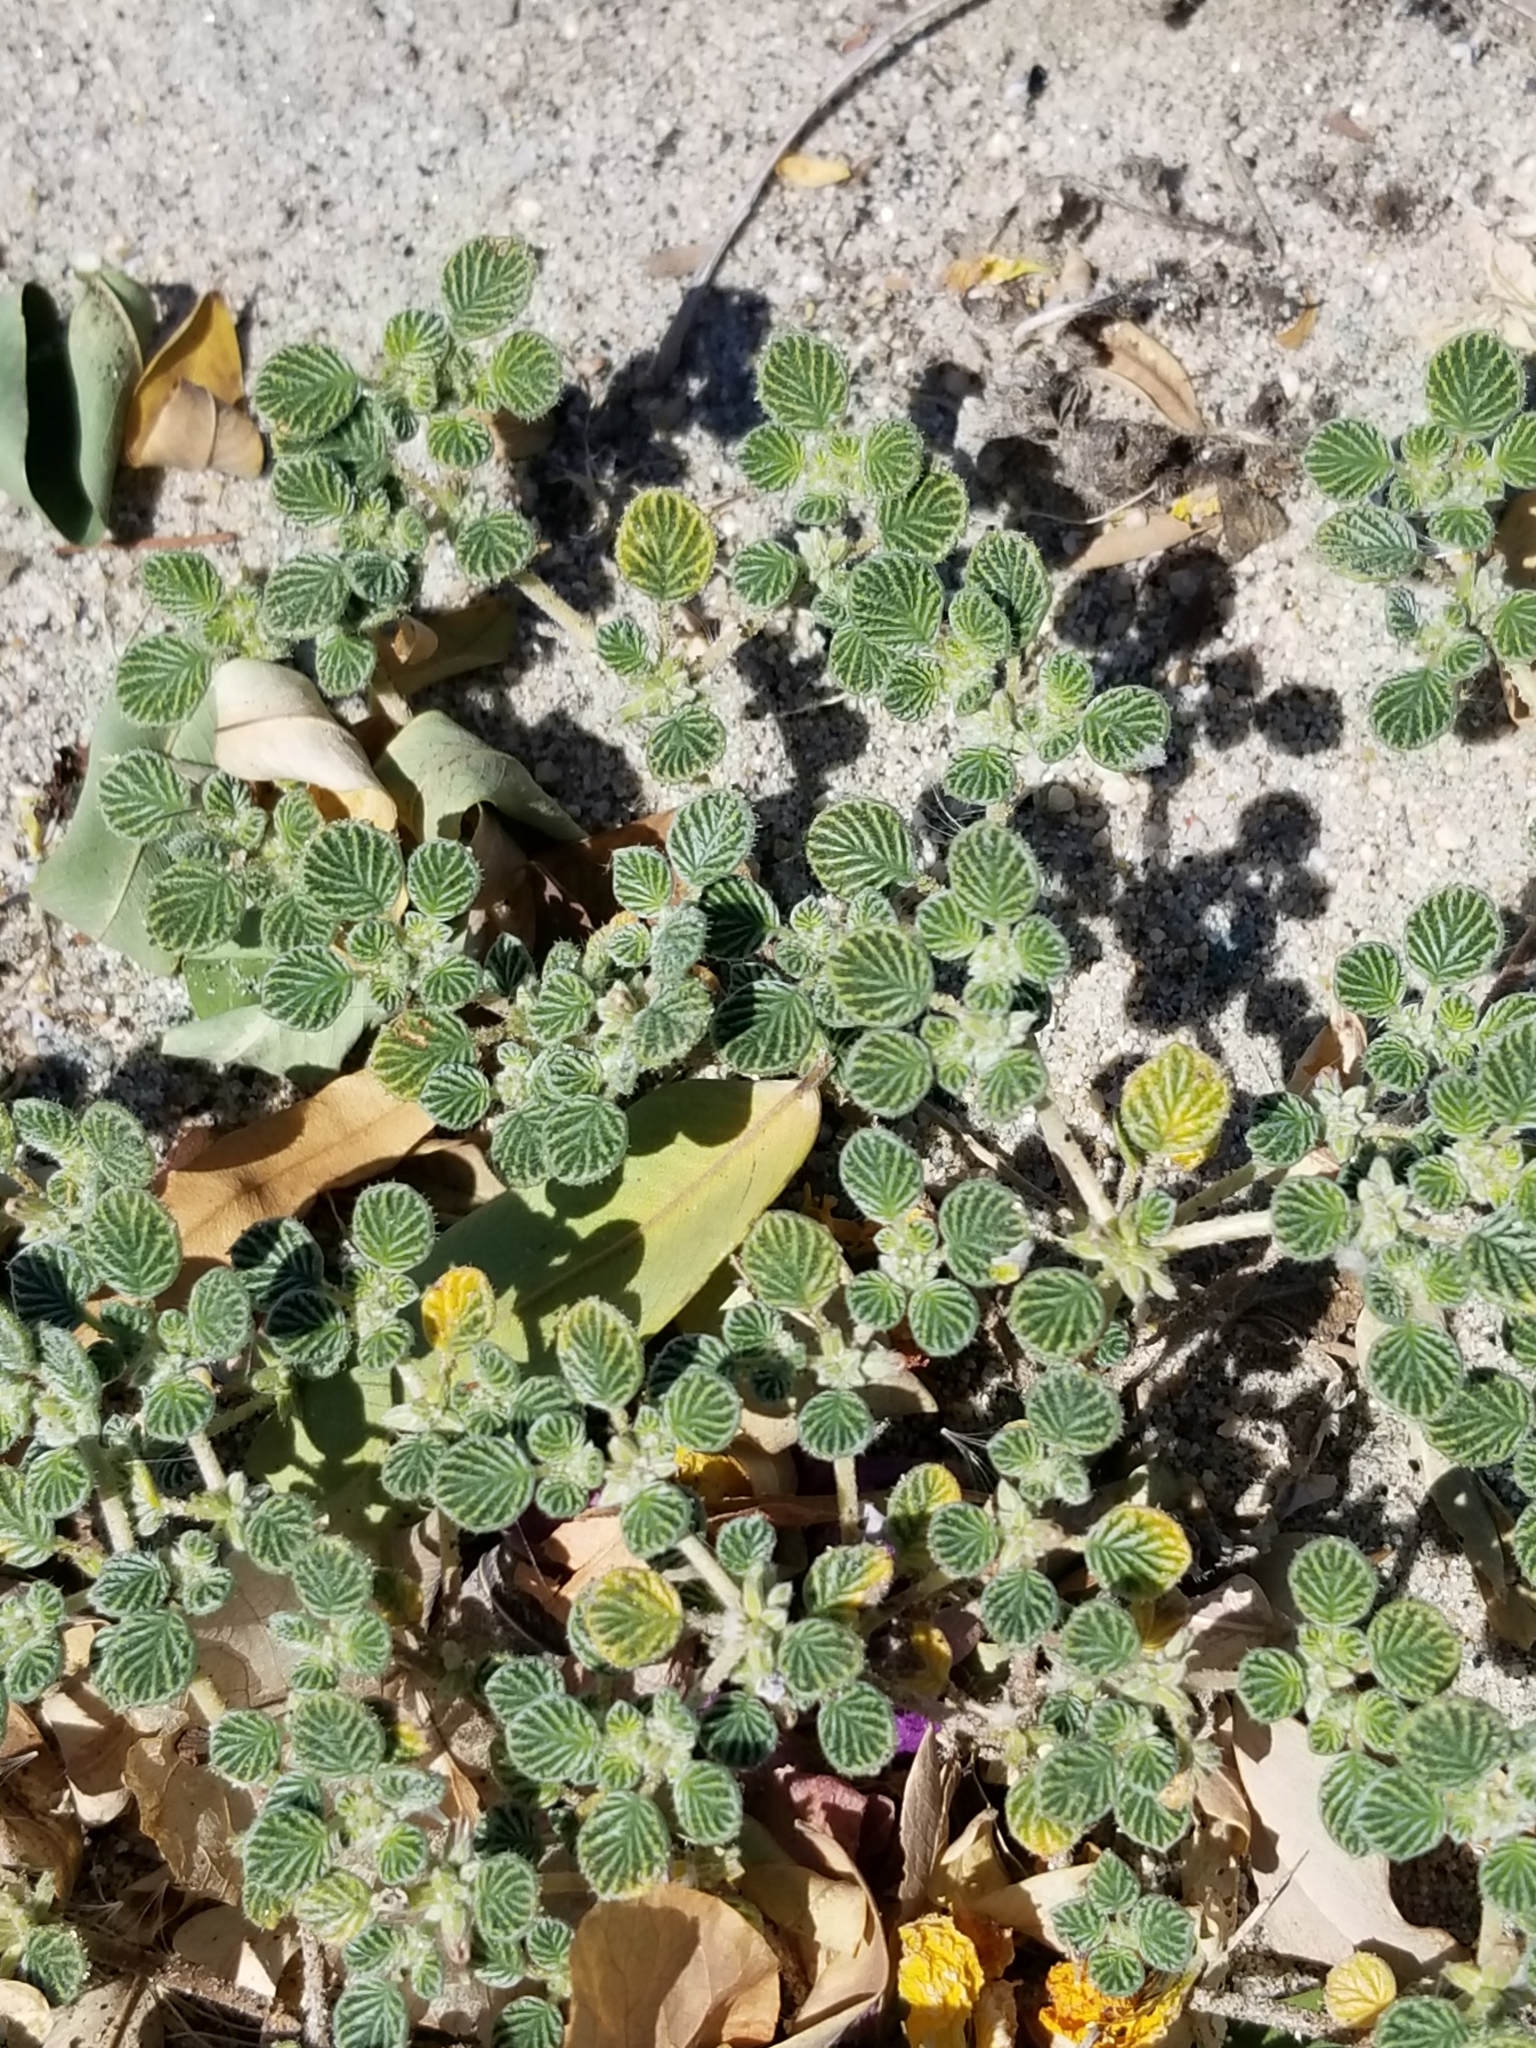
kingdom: Plantae
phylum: Tracheophyta
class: Magnoliopsida
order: Boraginales
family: Ehretiaceae
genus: Tiquilia
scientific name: Tiquilia plicata
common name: Fan-leaf tiquilia
